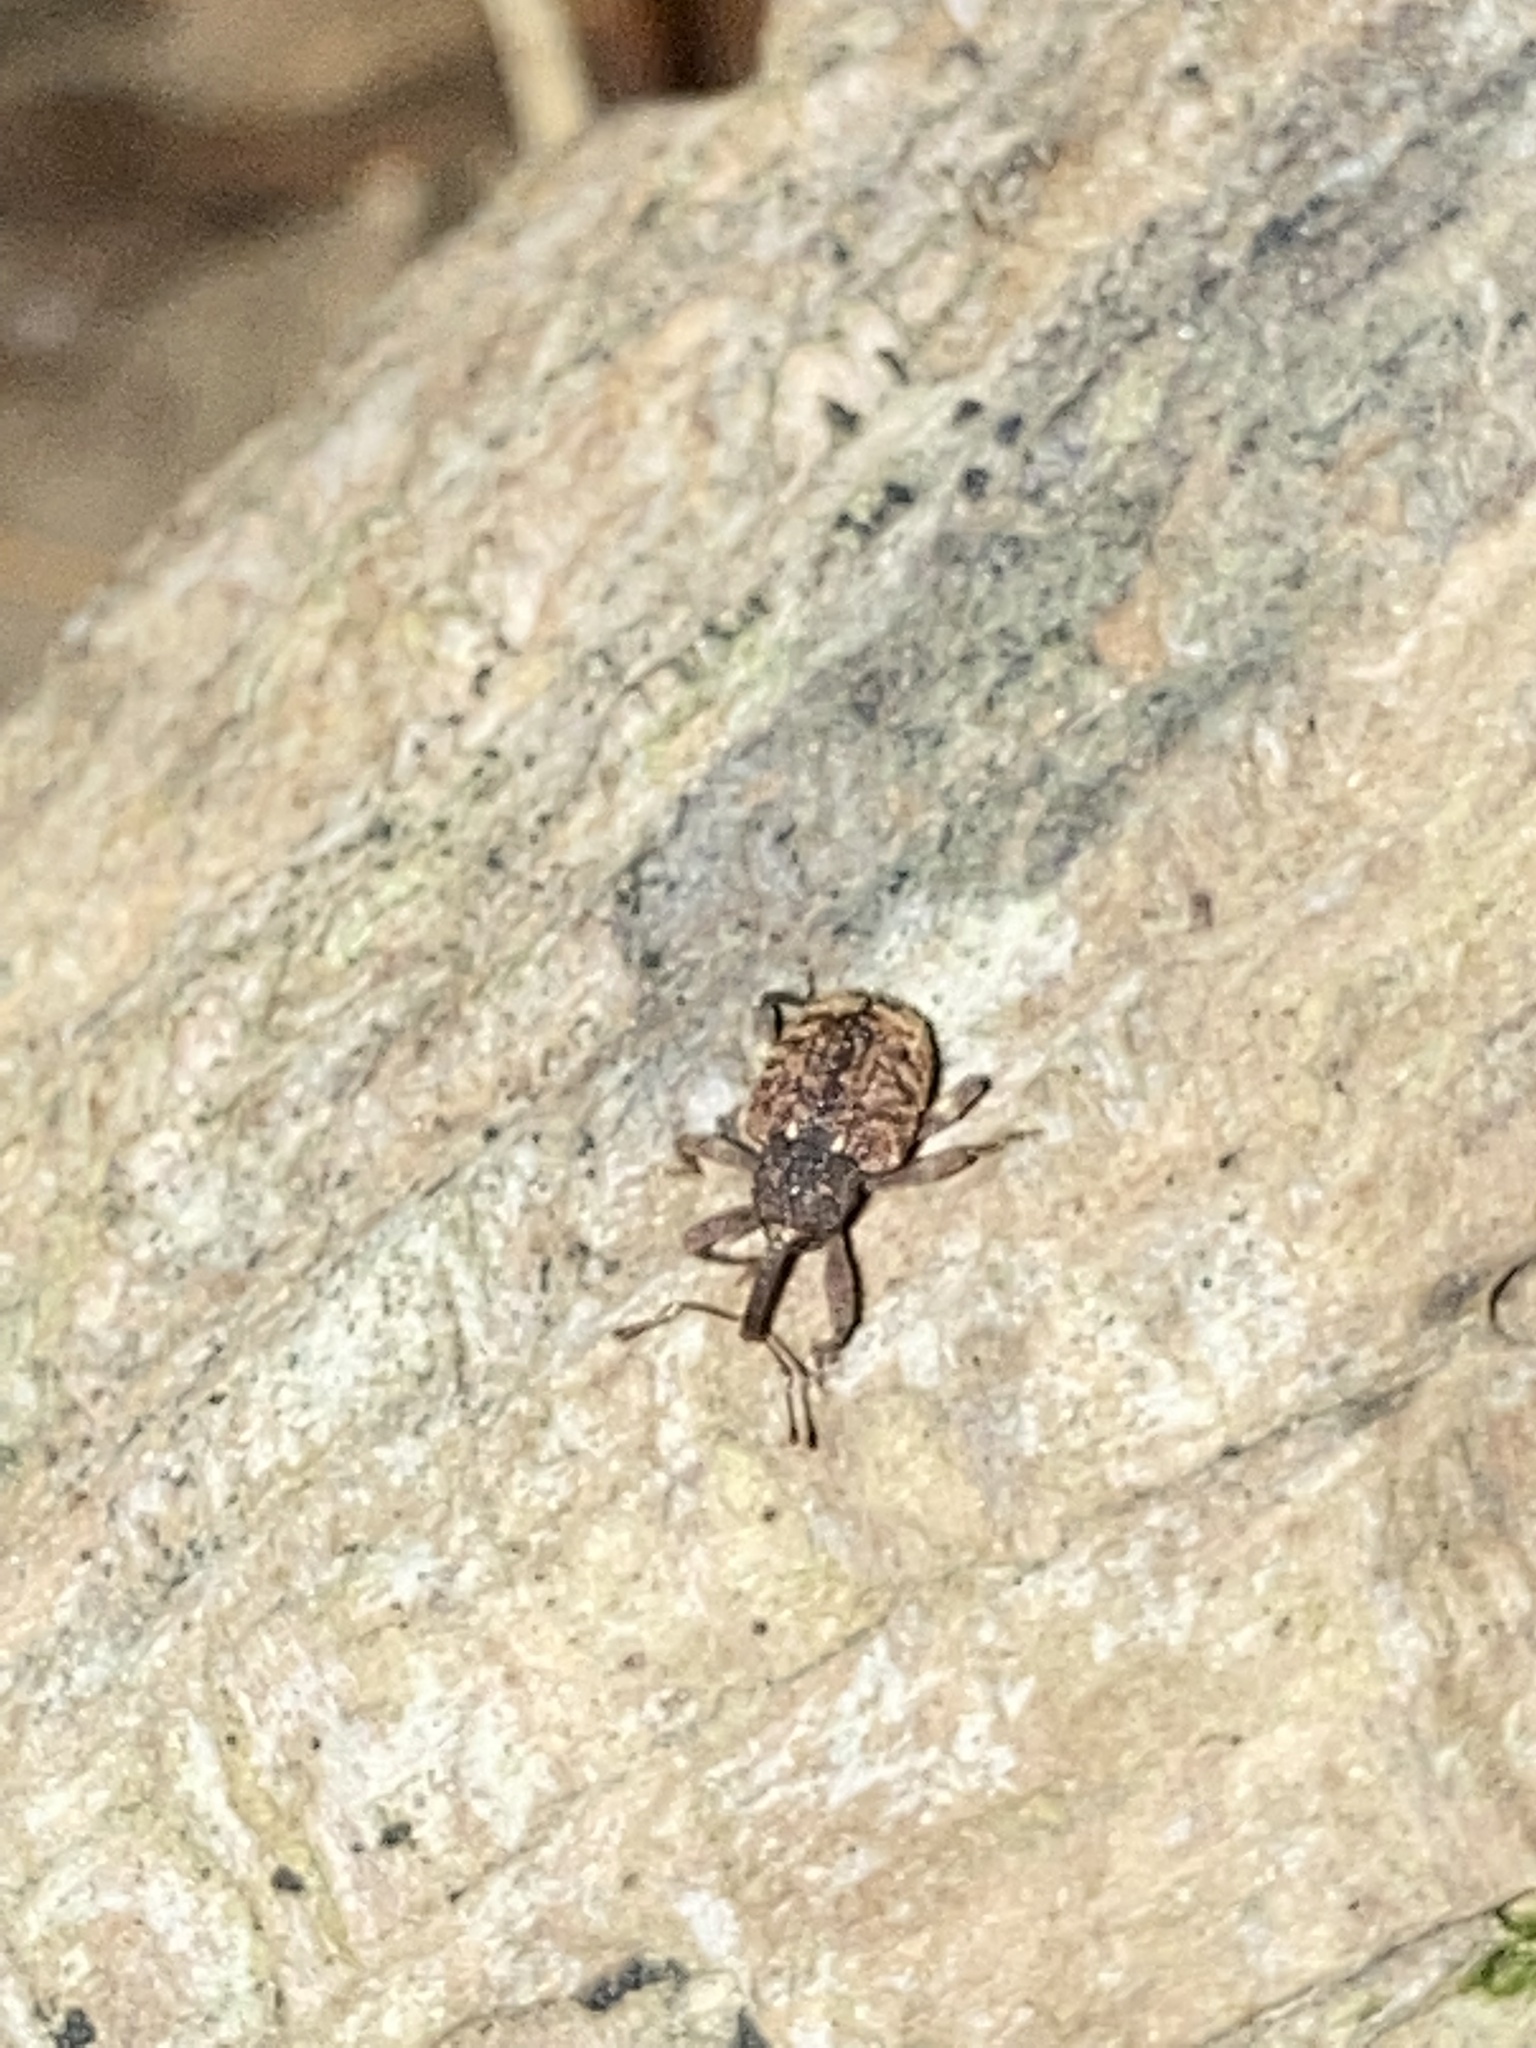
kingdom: Animalia
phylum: Arthropoda
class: Insecta
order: Coleoptera
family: Curculionidae
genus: Conotrachelus
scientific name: Conotrachelus posticatus
